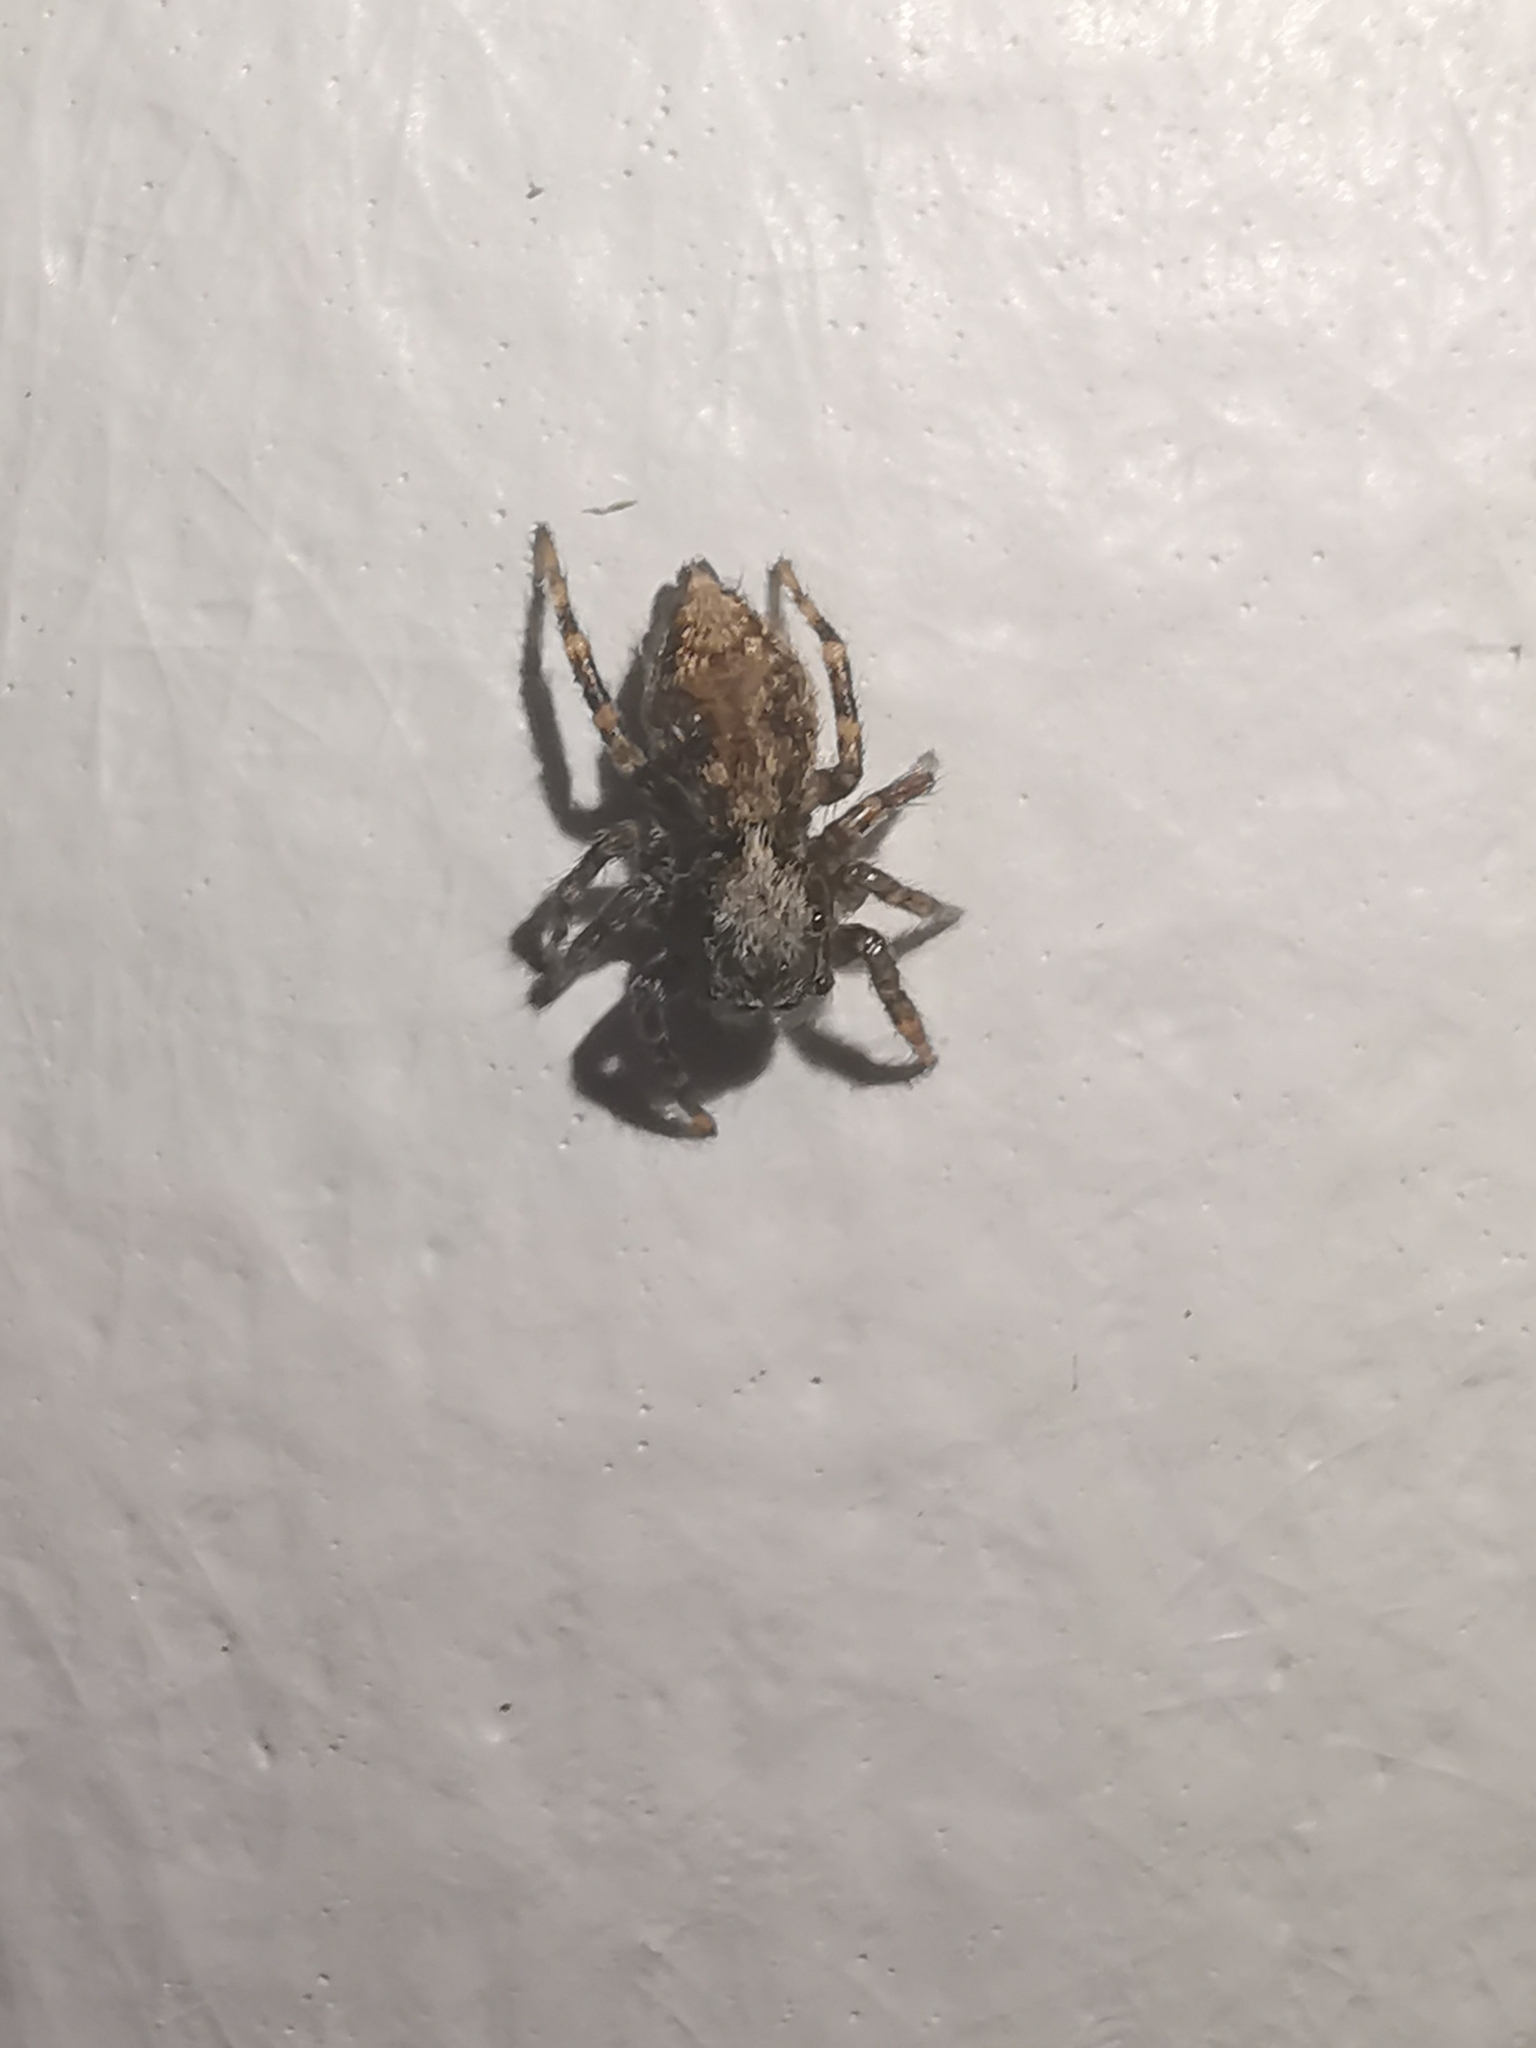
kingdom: Animalia
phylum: Arthropoda
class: Arachnida
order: Araneae
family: Salticidae
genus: Pseudeuophrys
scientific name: Pseudeuophrys lanigera
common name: Jumping spider
